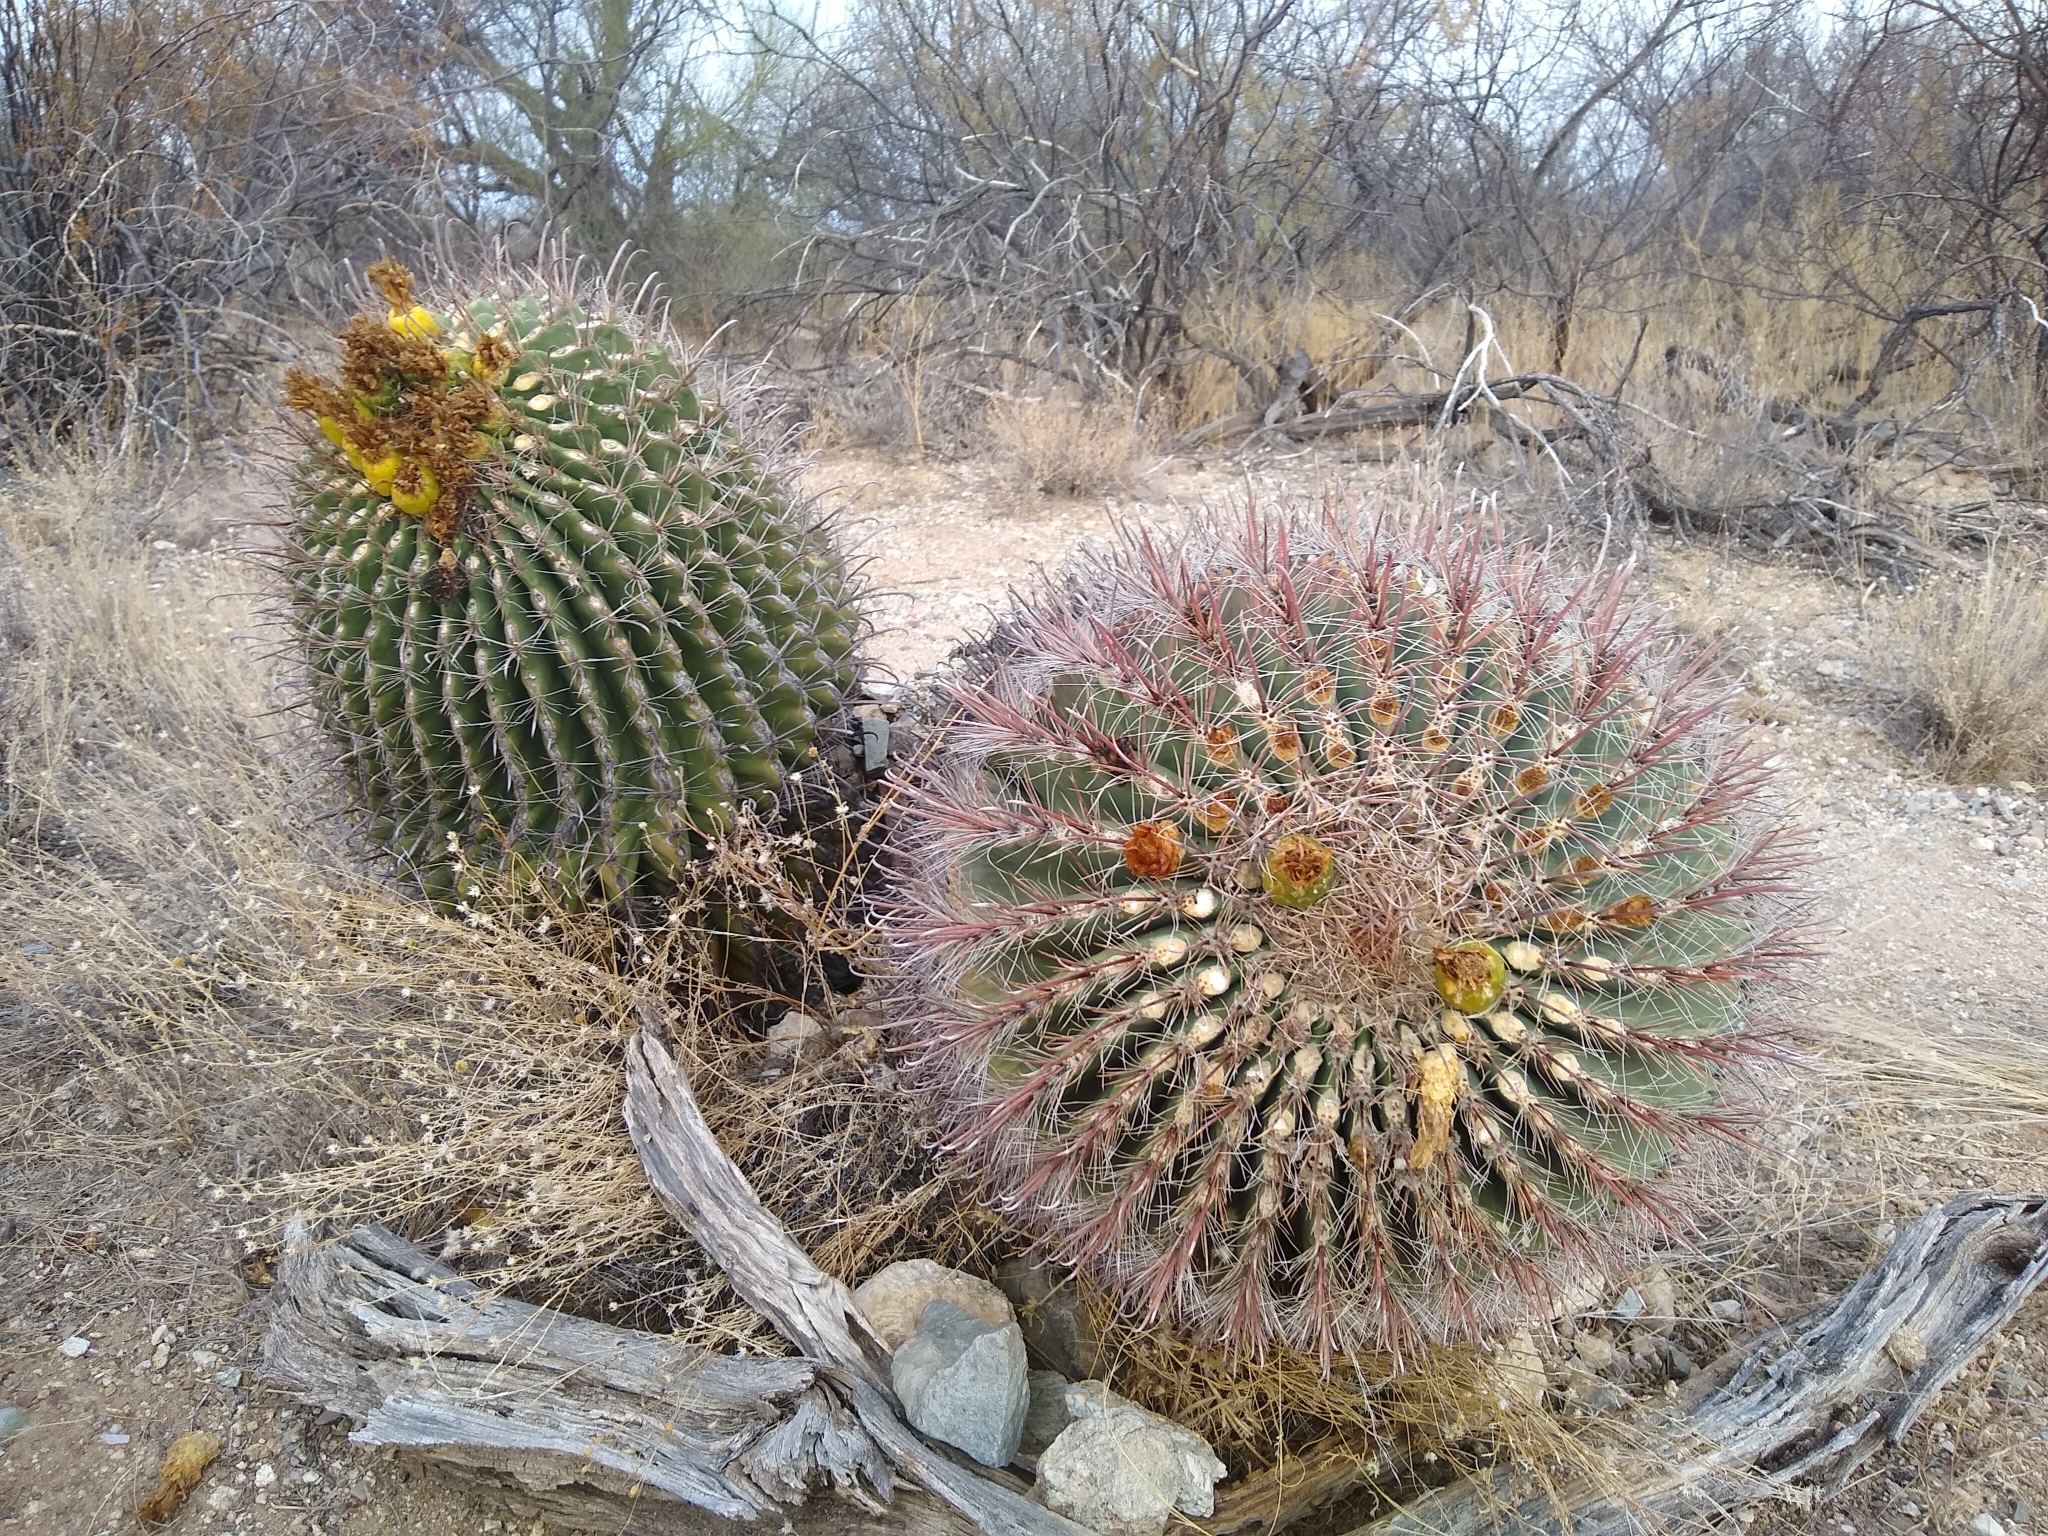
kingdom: Plantae
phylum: Tracheophyta
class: Magnoliopsida
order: Caryophyllales
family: Cactaceae
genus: Ferocactus
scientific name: Ferocactus wislizeni
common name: Candy barrel cactus
